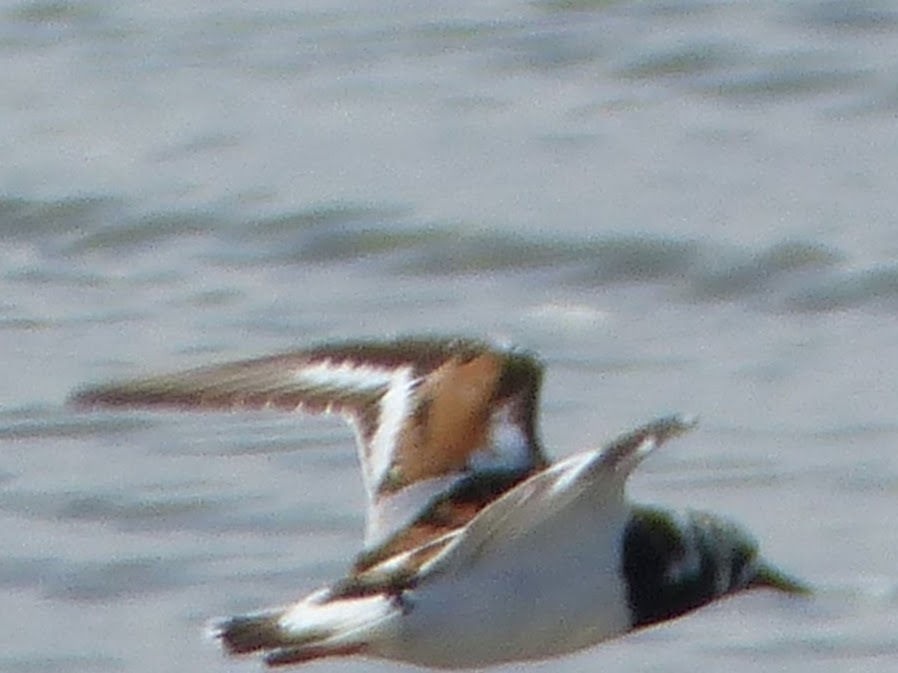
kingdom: Animalia
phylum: Chordata
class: Aves
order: Charadriiformes
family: Scolopacidae
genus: Arenaria
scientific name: Arenaria interpres
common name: Ruddy turnstone
